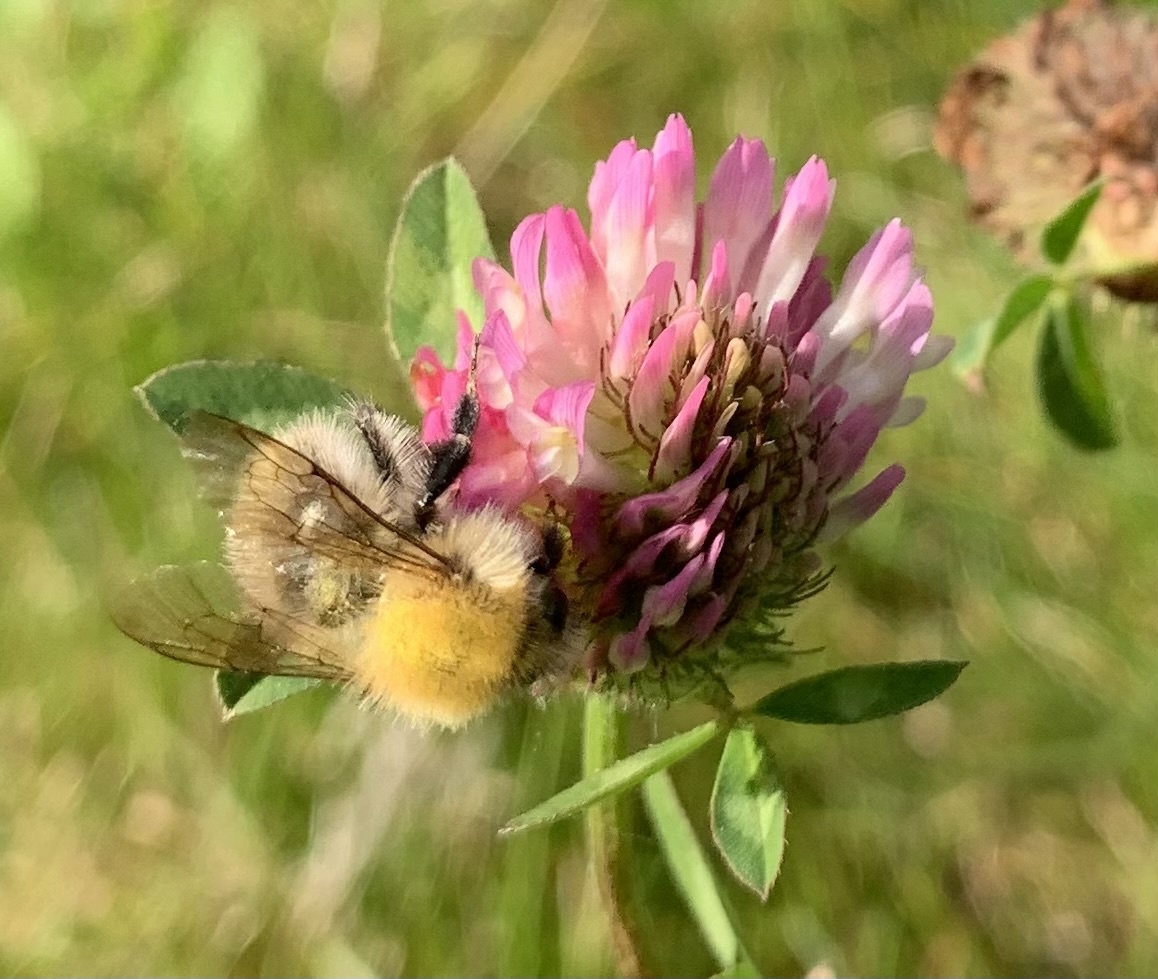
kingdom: Animalia
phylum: Arthropoda
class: Insecta
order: Hymenoptera
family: Apidae
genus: Bombus
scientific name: Bombus pascuorum
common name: Common carder bee
